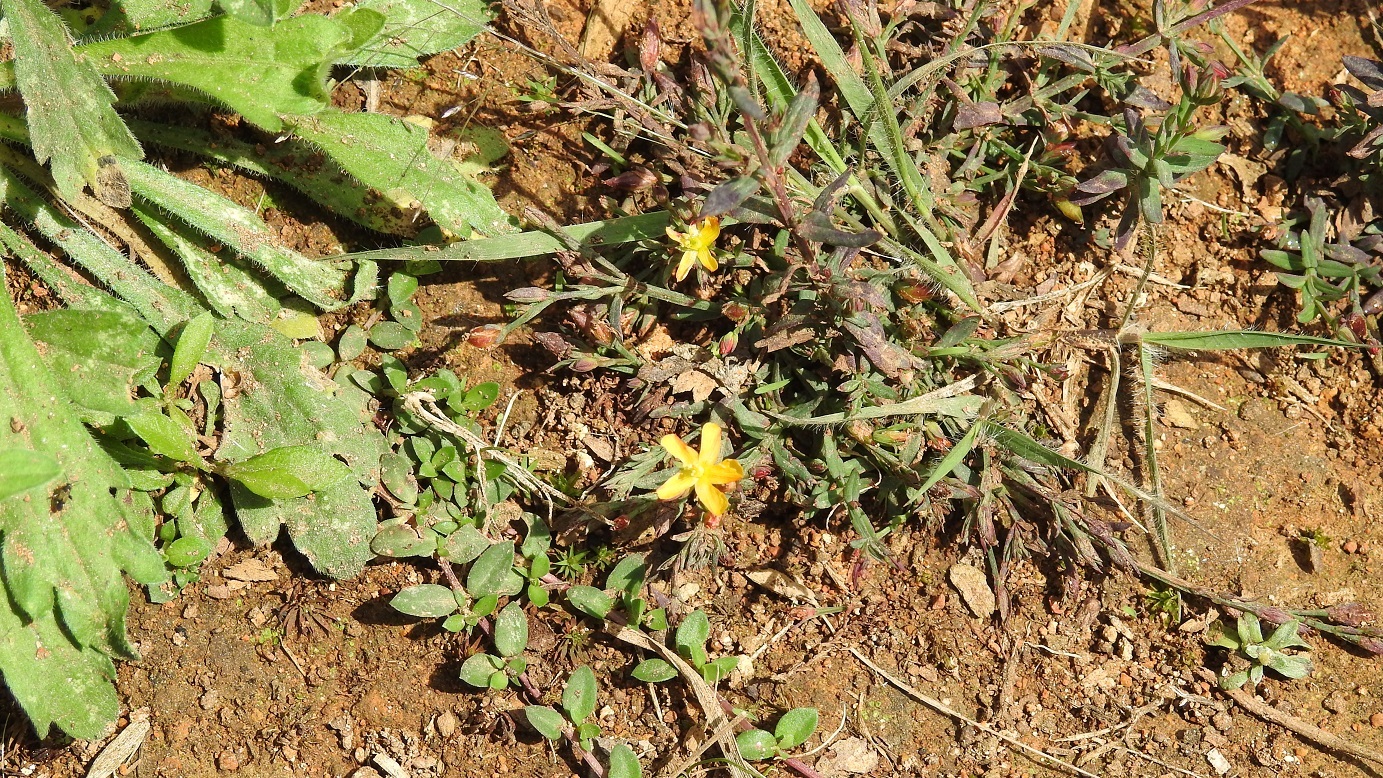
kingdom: Plantae
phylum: Tracheophyta
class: Magnoliopsida
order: Malpighiales
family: Hypericaceae
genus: Hypericum
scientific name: Hypericum silenoides
